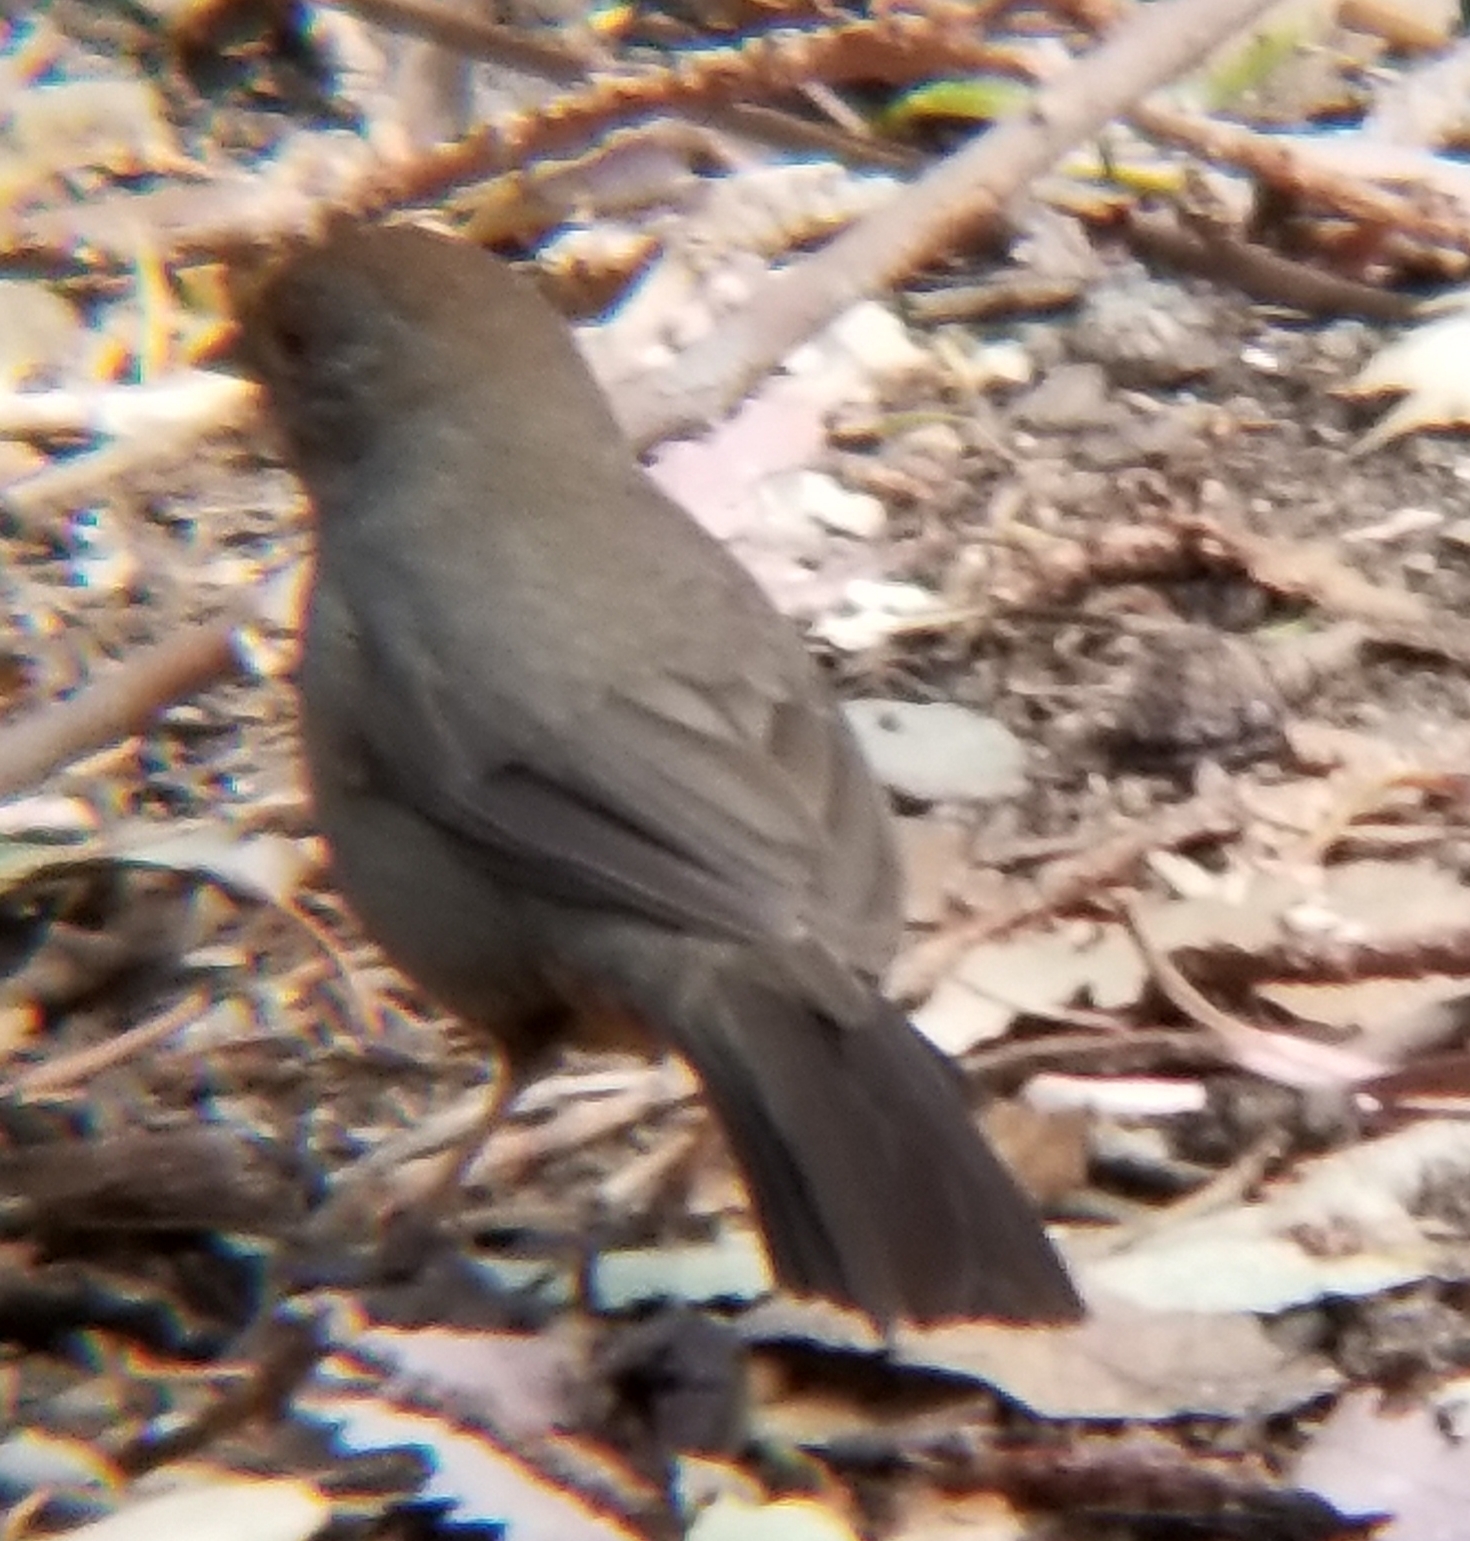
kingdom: Animalia
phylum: Chordata
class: Aves
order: Passeriformes
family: Passerellidae
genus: Melozone
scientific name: Melozone crissalis
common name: California towhee
